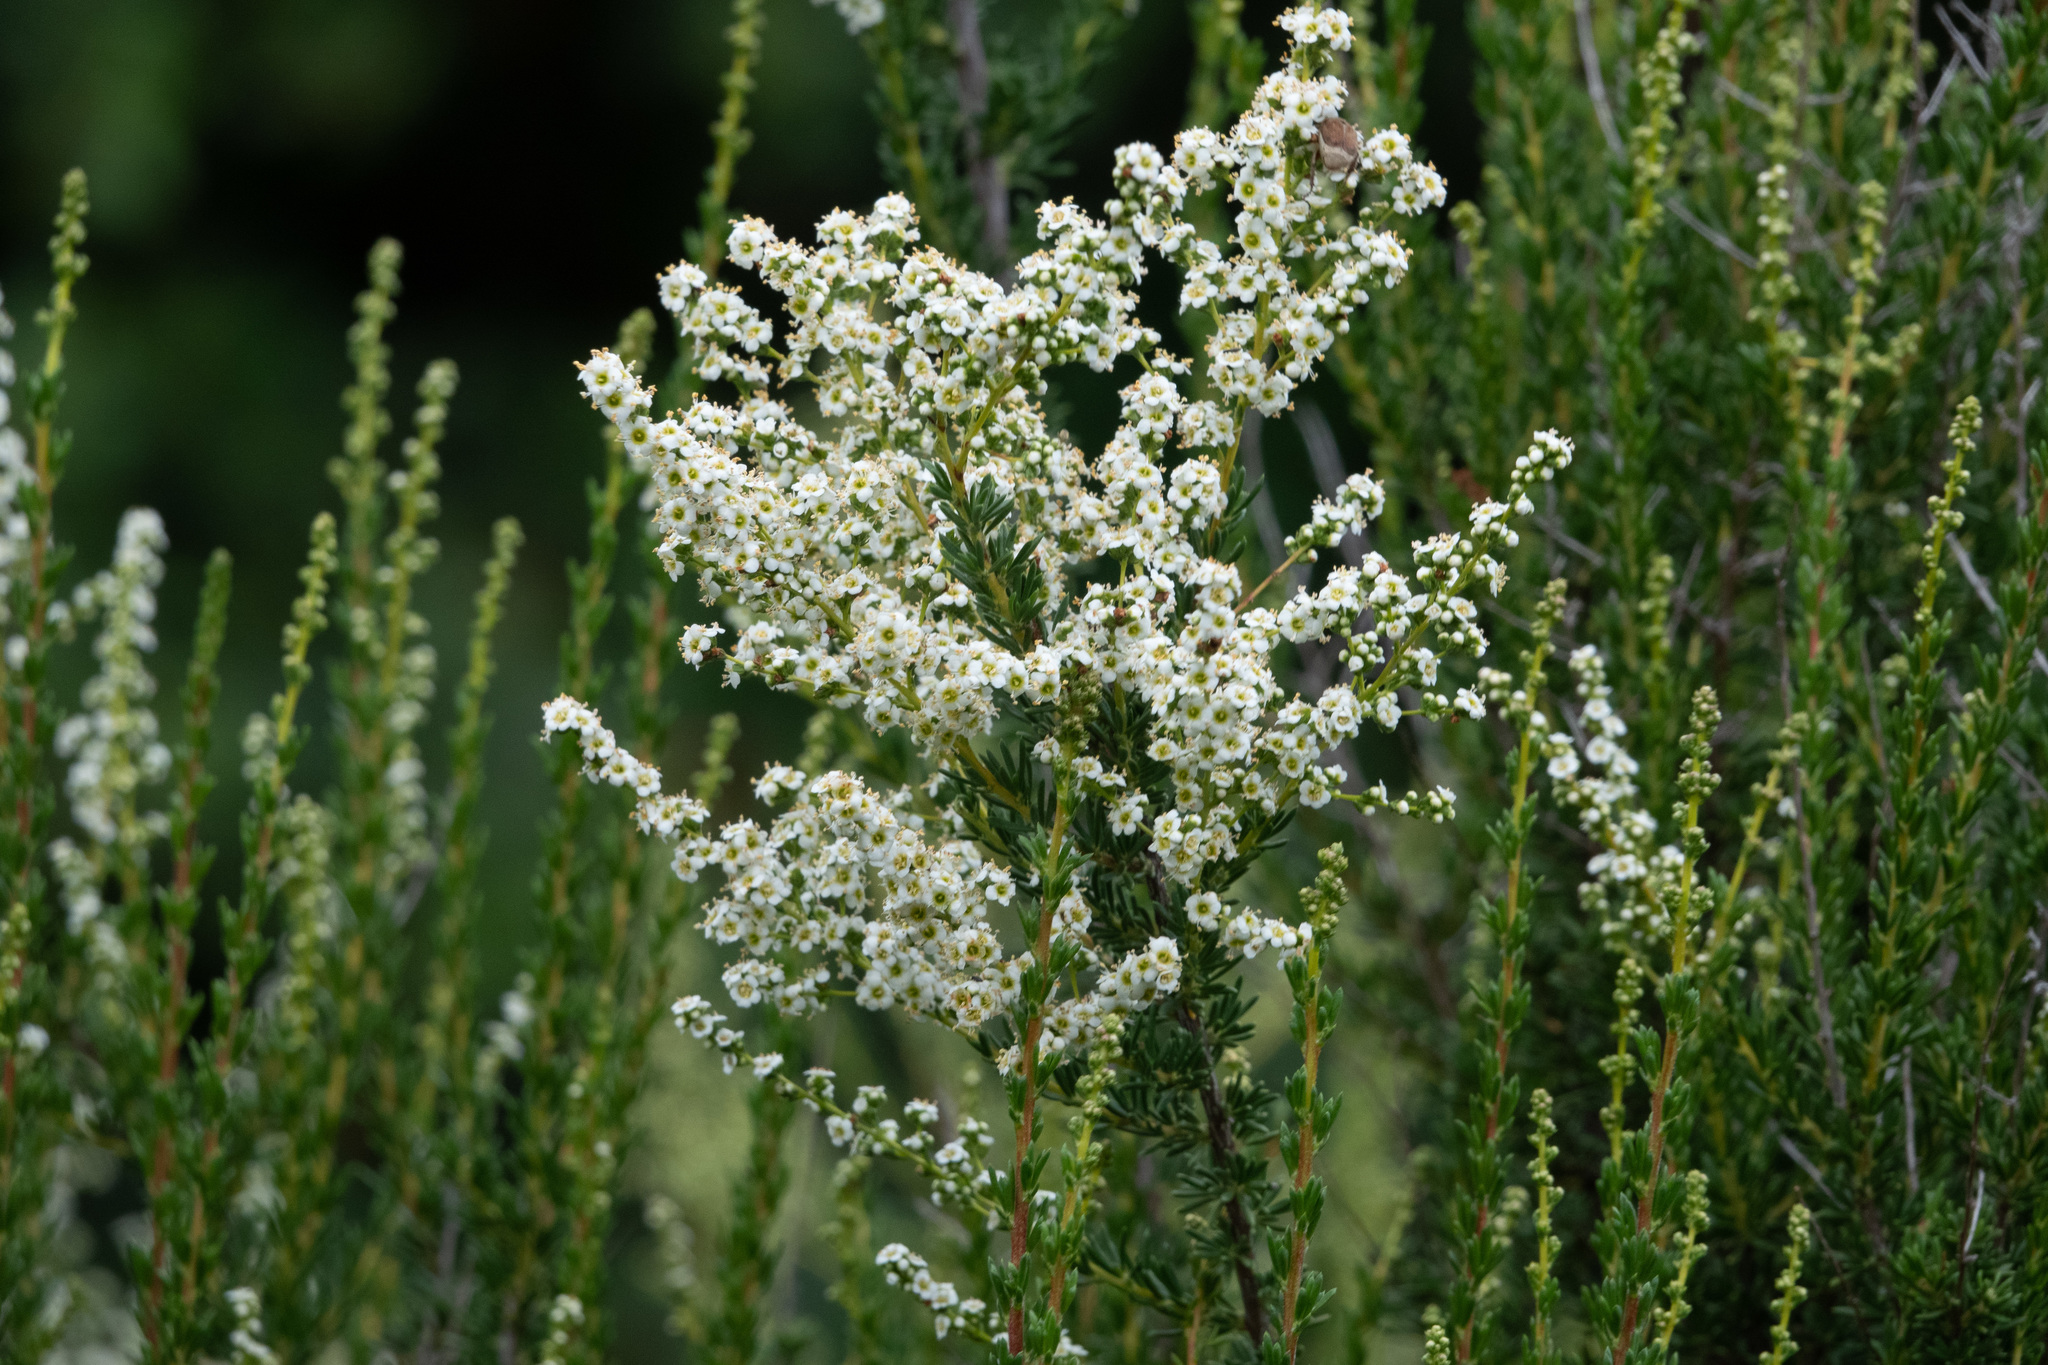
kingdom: Plantae
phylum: Tracheophyta
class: Magnoliopsida
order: Rosales
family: Rosaceae
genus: Adenostoma
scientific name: Adenostoma fasciculatum
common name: Chamise
